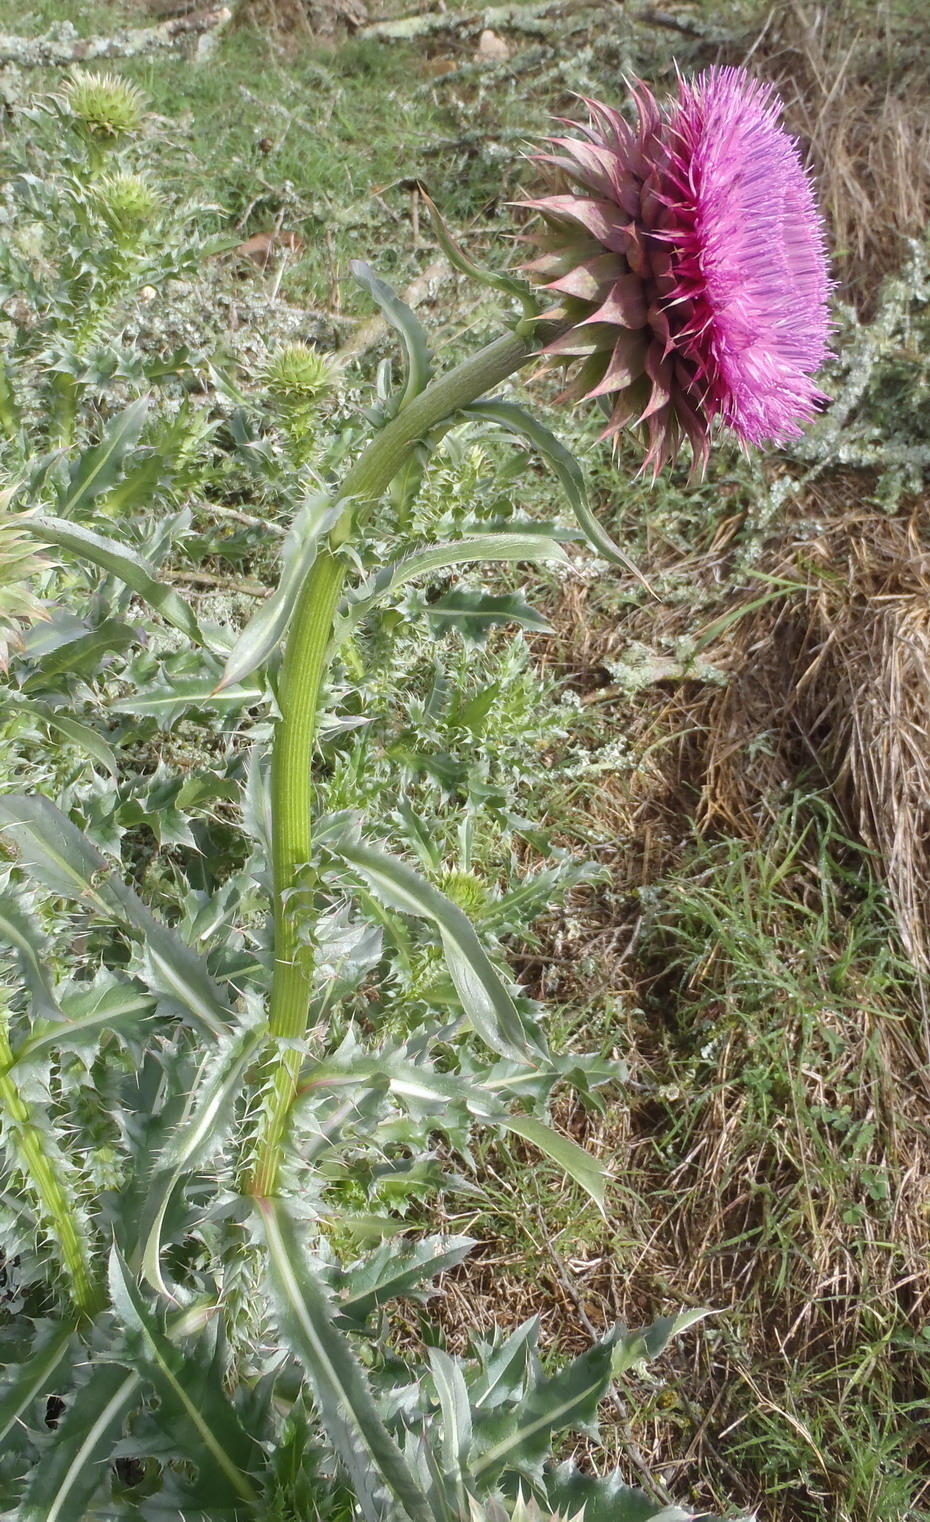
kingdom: Plantae
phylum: Tracheophyta
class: Magnoliopsida
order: Asterales
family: Asteraceae
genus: Carduus
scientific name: Carduus nutans
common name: Musk thistle
